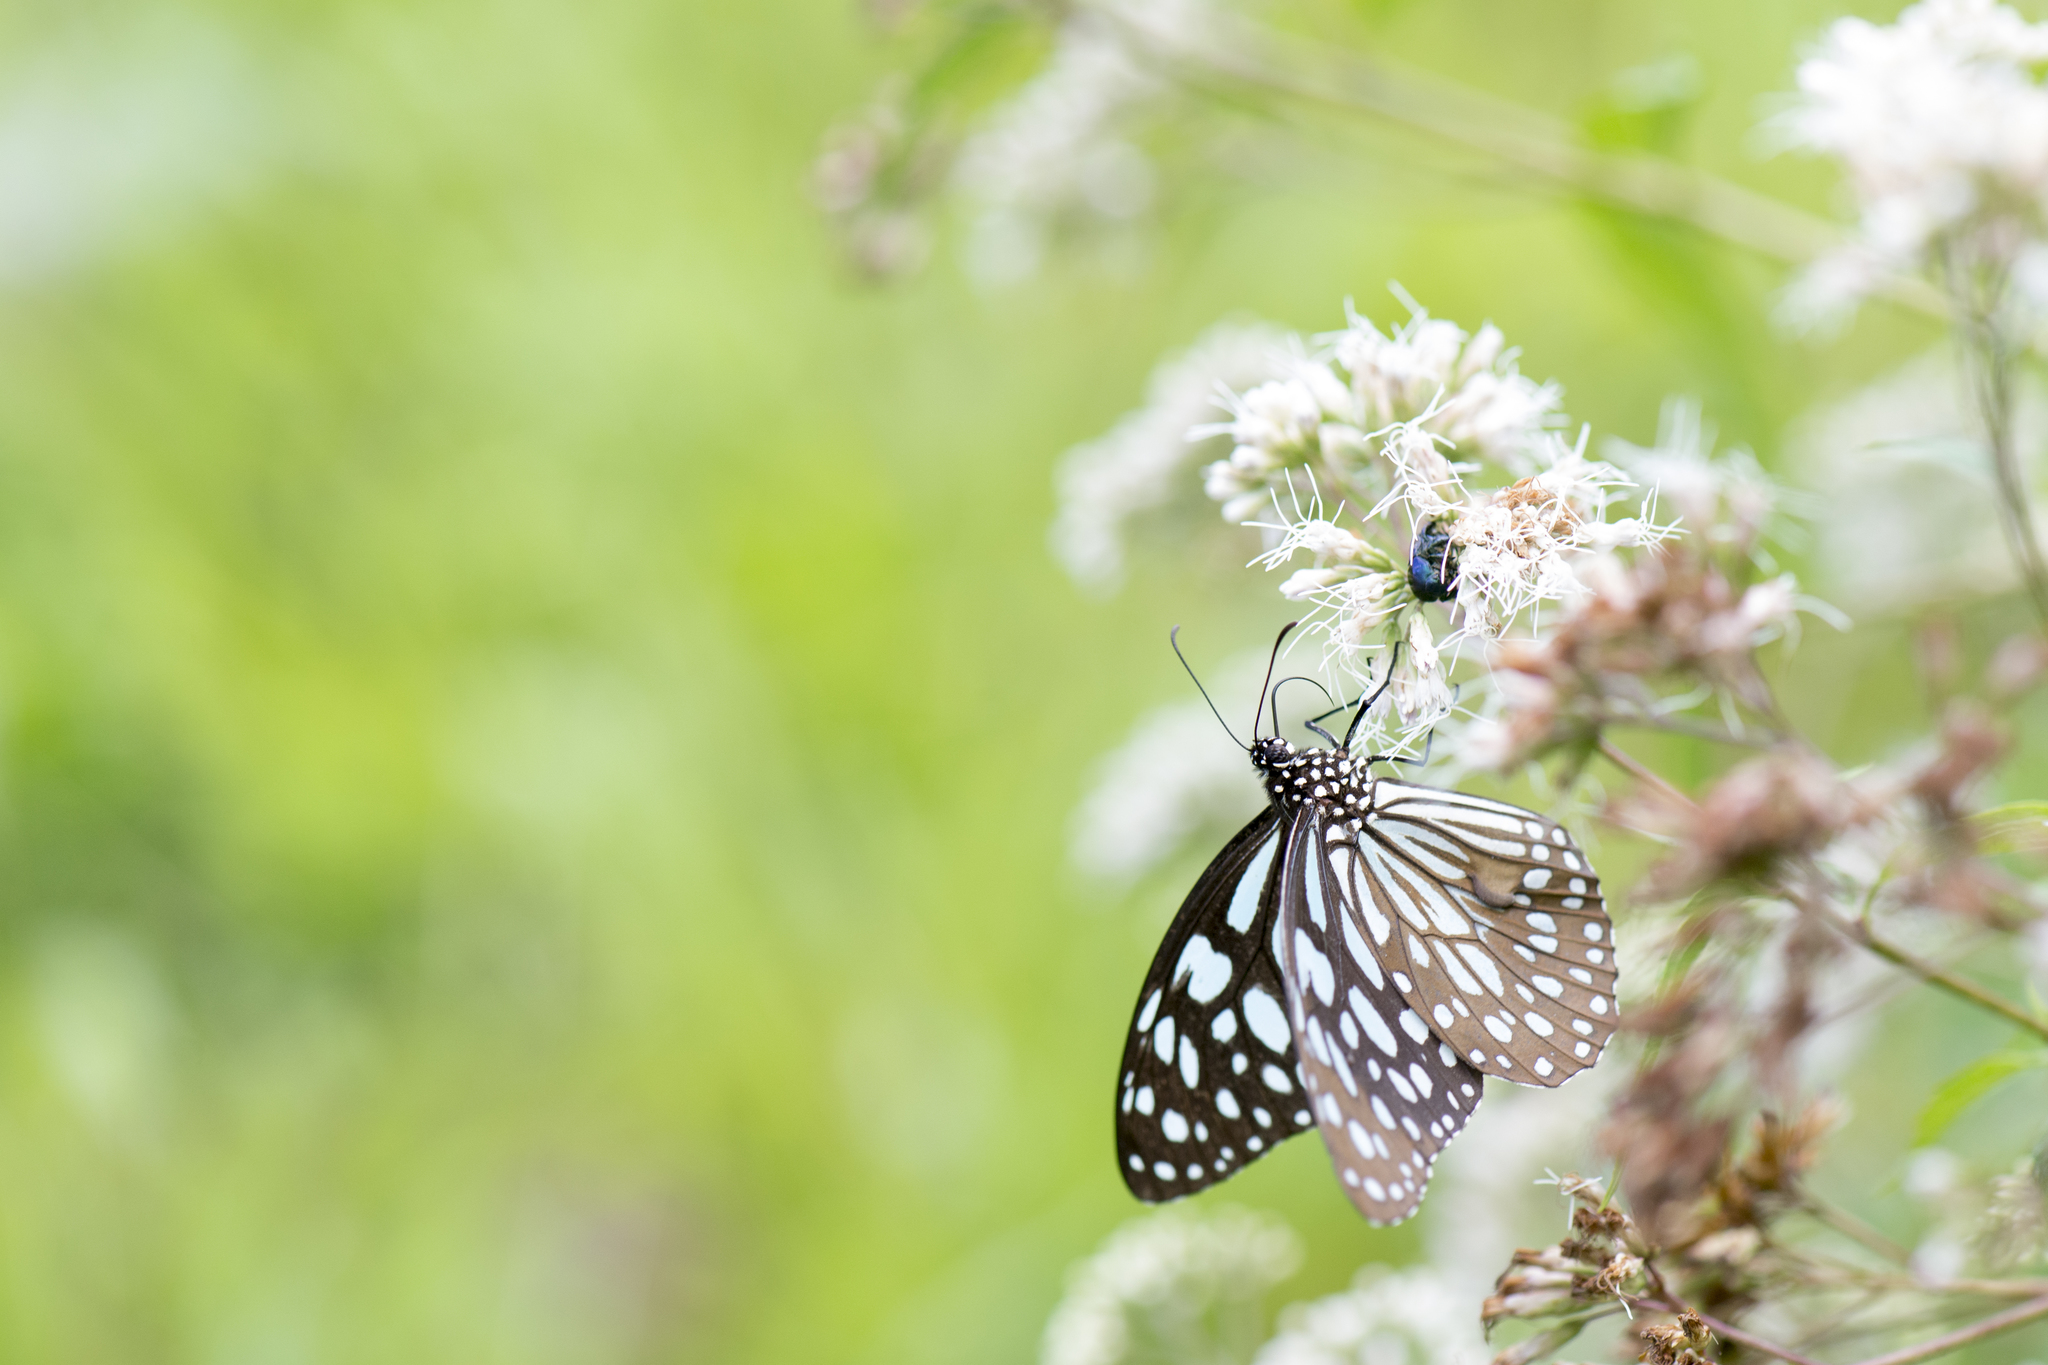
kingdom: Animalia
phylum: Arthropoda
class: Insecta
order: Lepidoptera
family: Nymphalidae
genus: Tirumala
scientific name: Tirumala limniace
